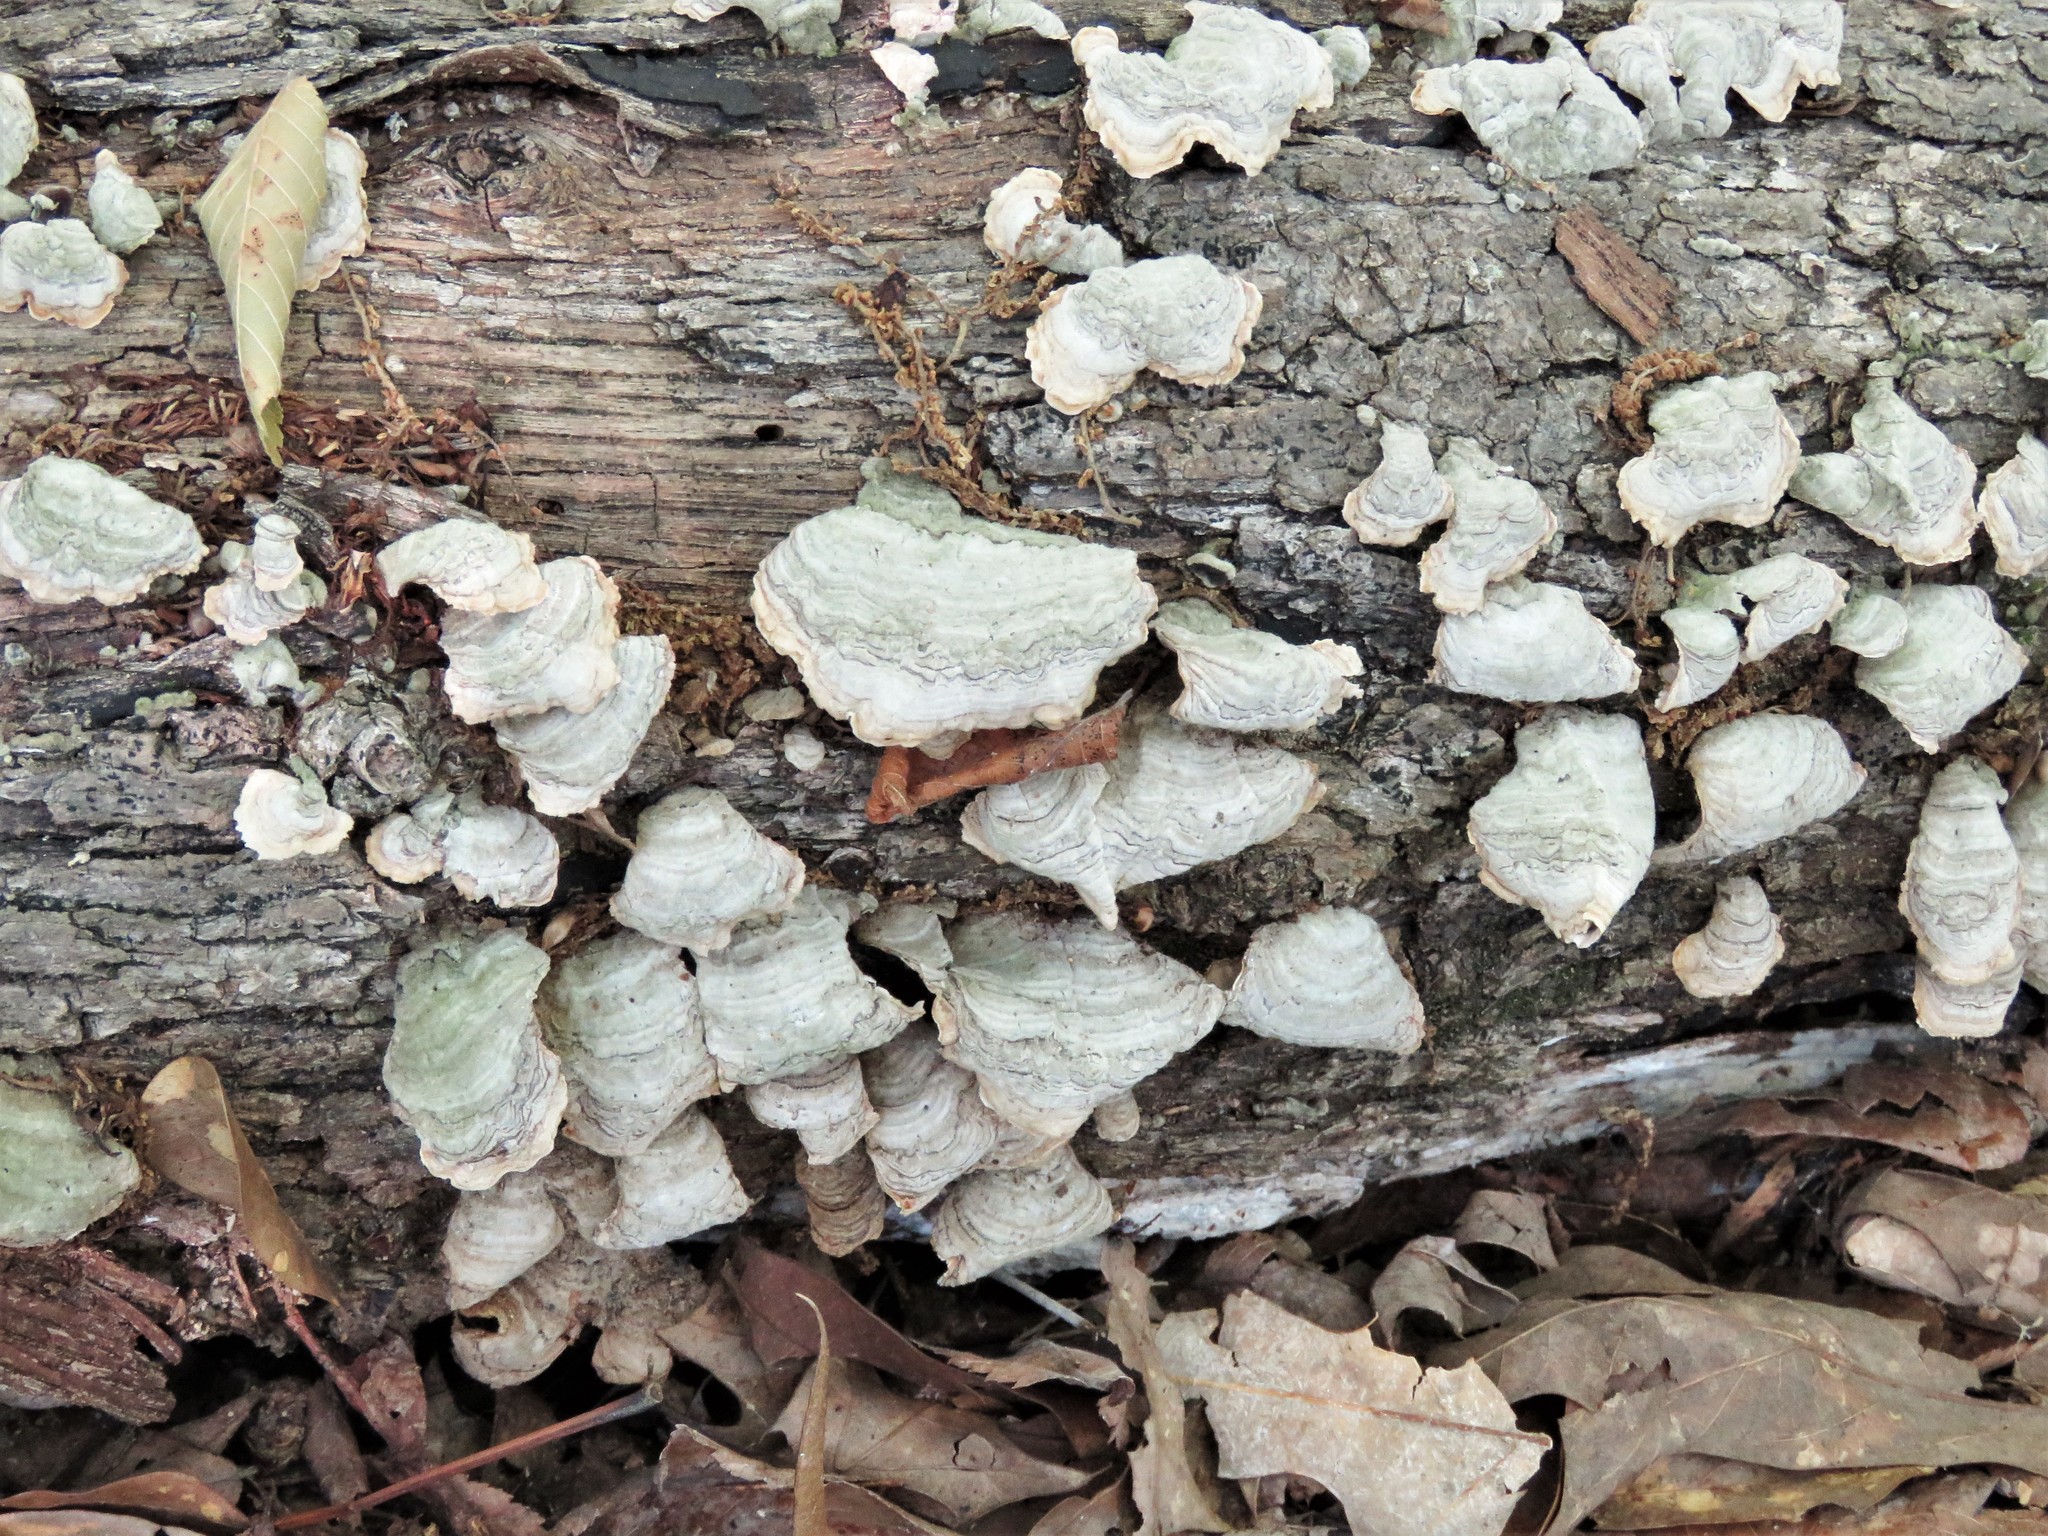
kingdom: Fungi
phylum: Basidiomycota
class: Agaricomycetes
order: Russulales
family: Stereaceae
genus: Stereum
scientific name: Stereum ostrea
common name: False turkeytail
